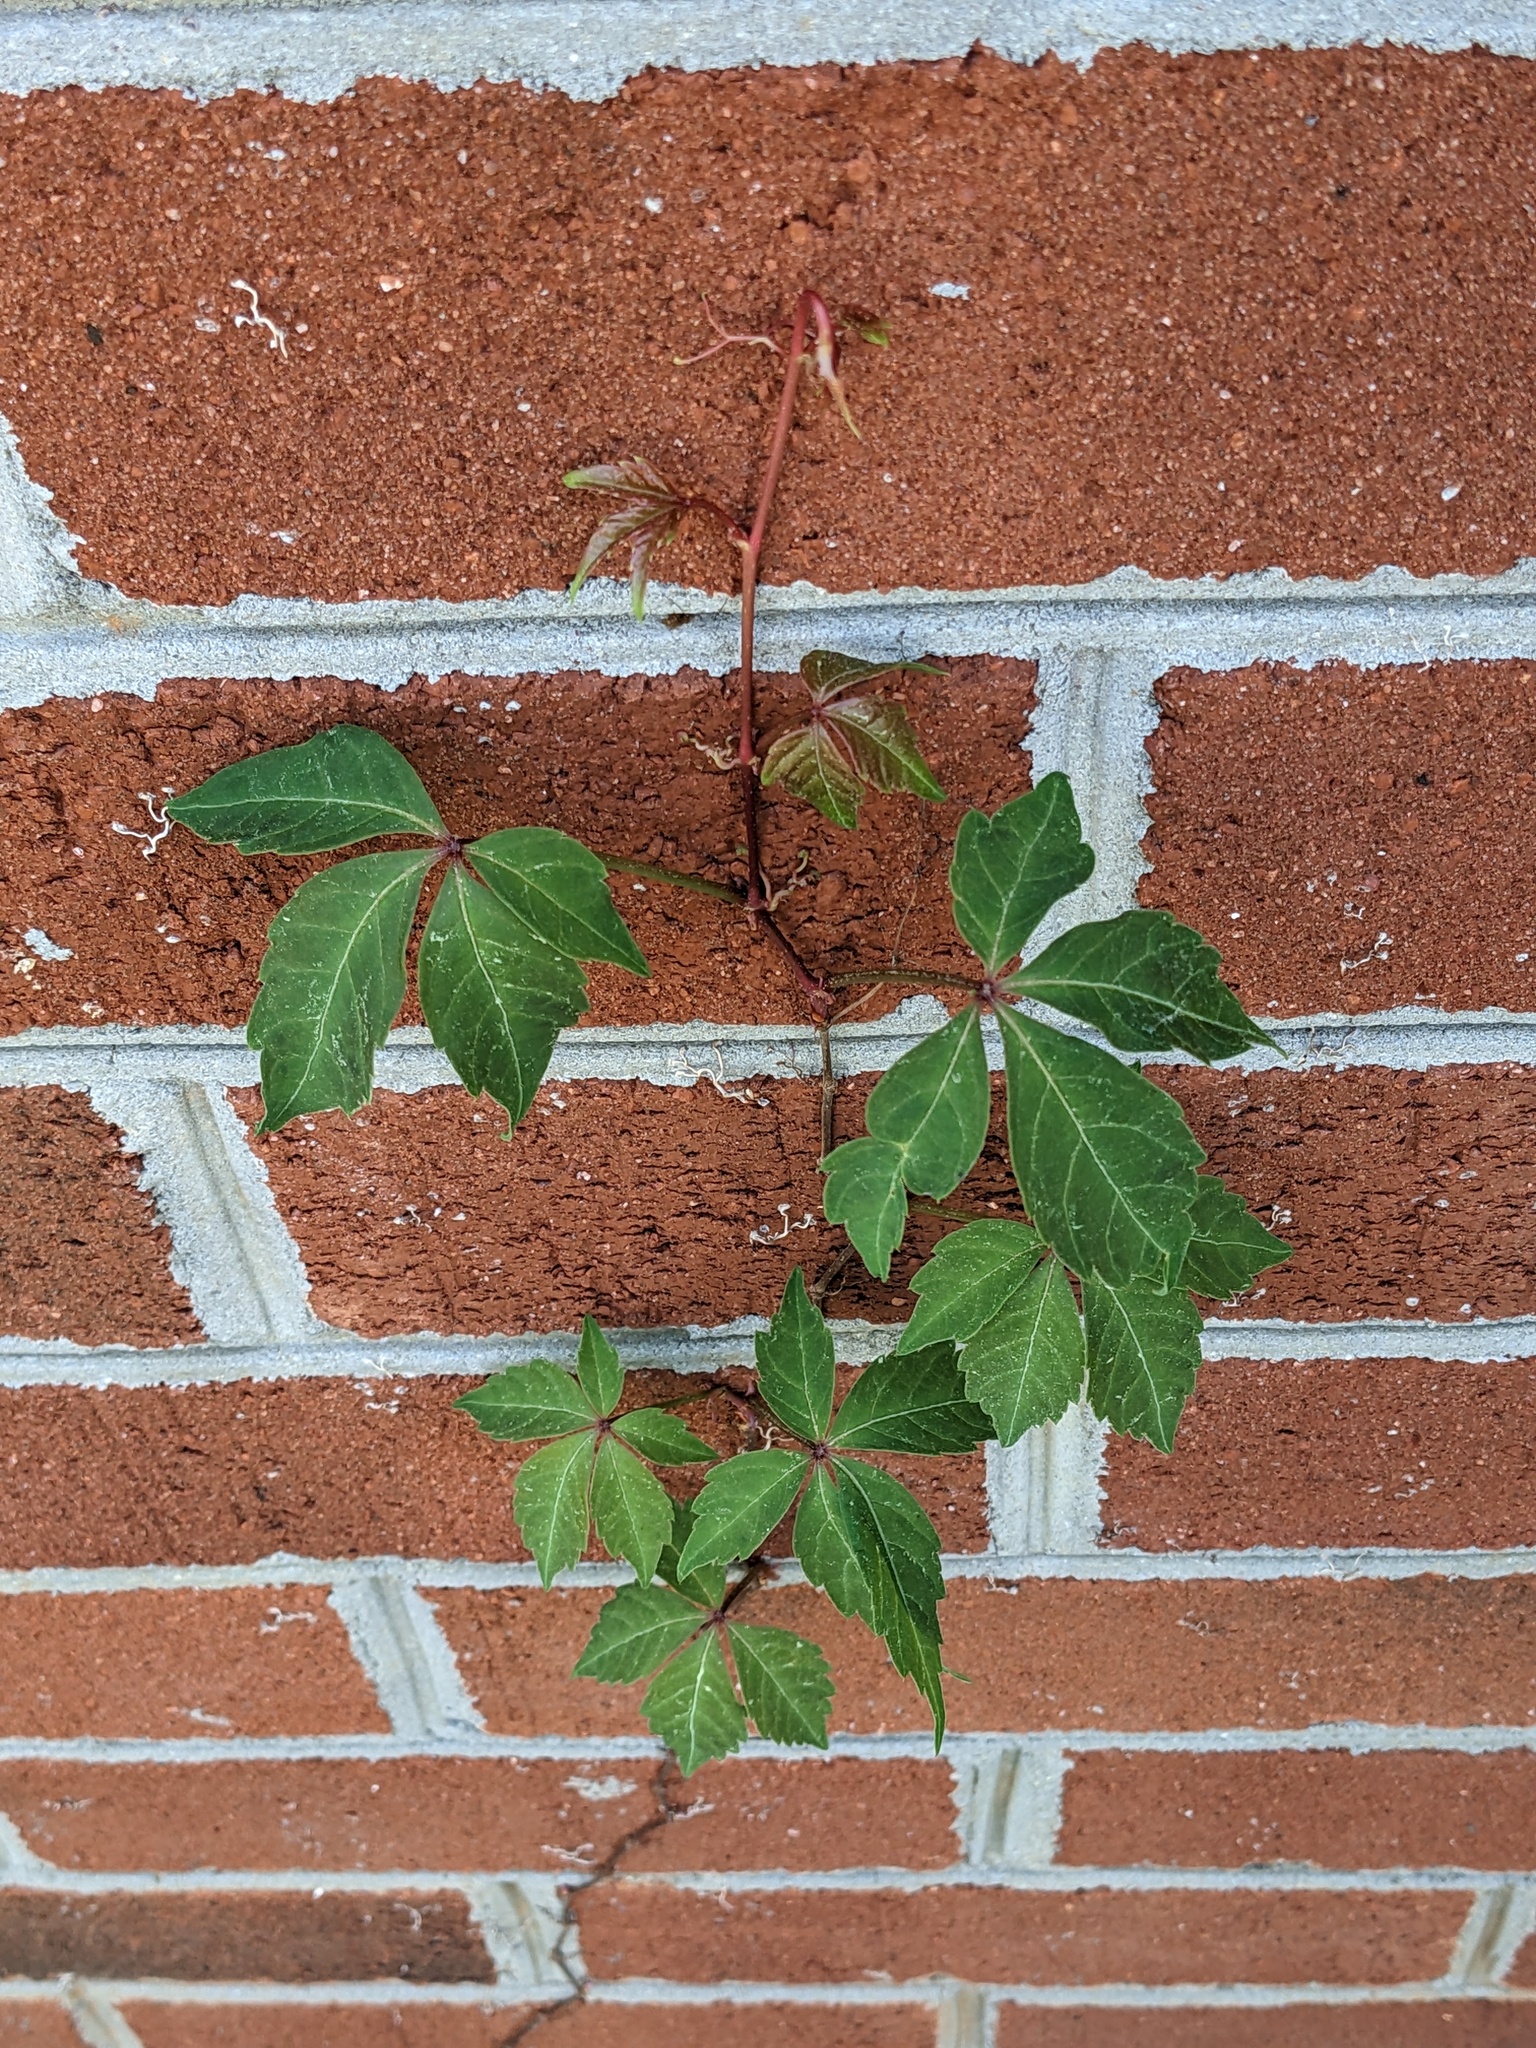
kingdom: Plantae
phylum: Tracheophyta
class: Magnoliopsida
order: Vitales
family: Vitaceae
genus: Parthenocissus
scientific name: Parthenocissus quinquefolia
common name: Virginia-creeper
